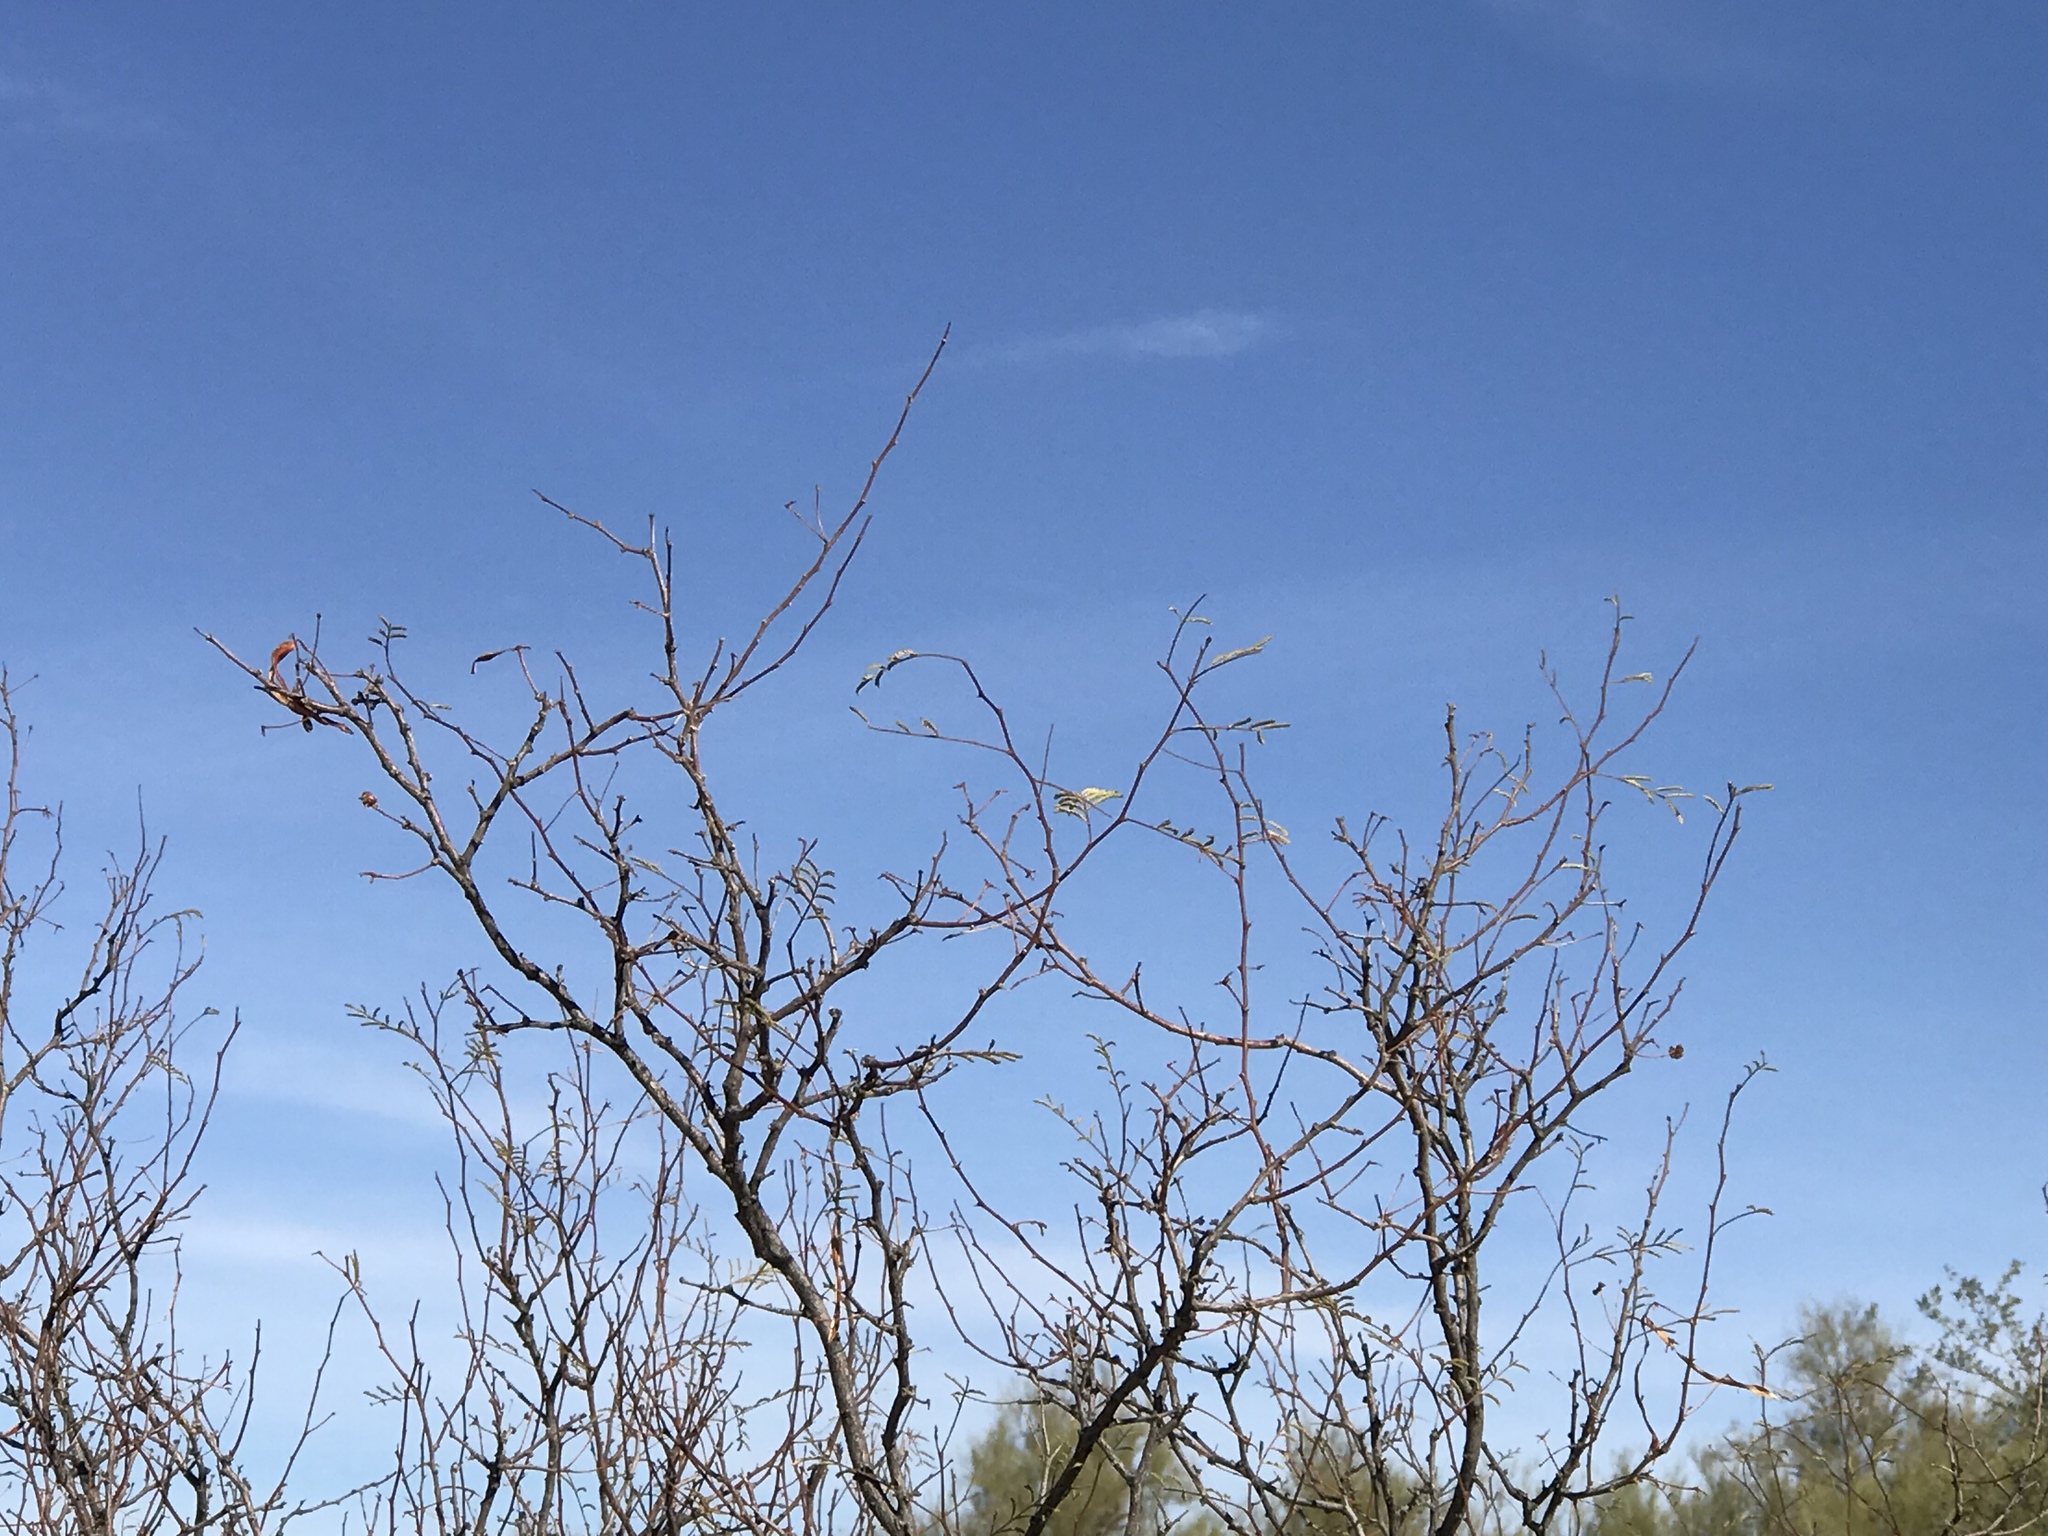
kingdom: Plantae
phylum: Tracheophyta
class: Magnoliopsida
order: Fabales
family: Fabaceae
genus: Vachellia
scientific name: Vachellia constricta
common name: Mescat acacia
